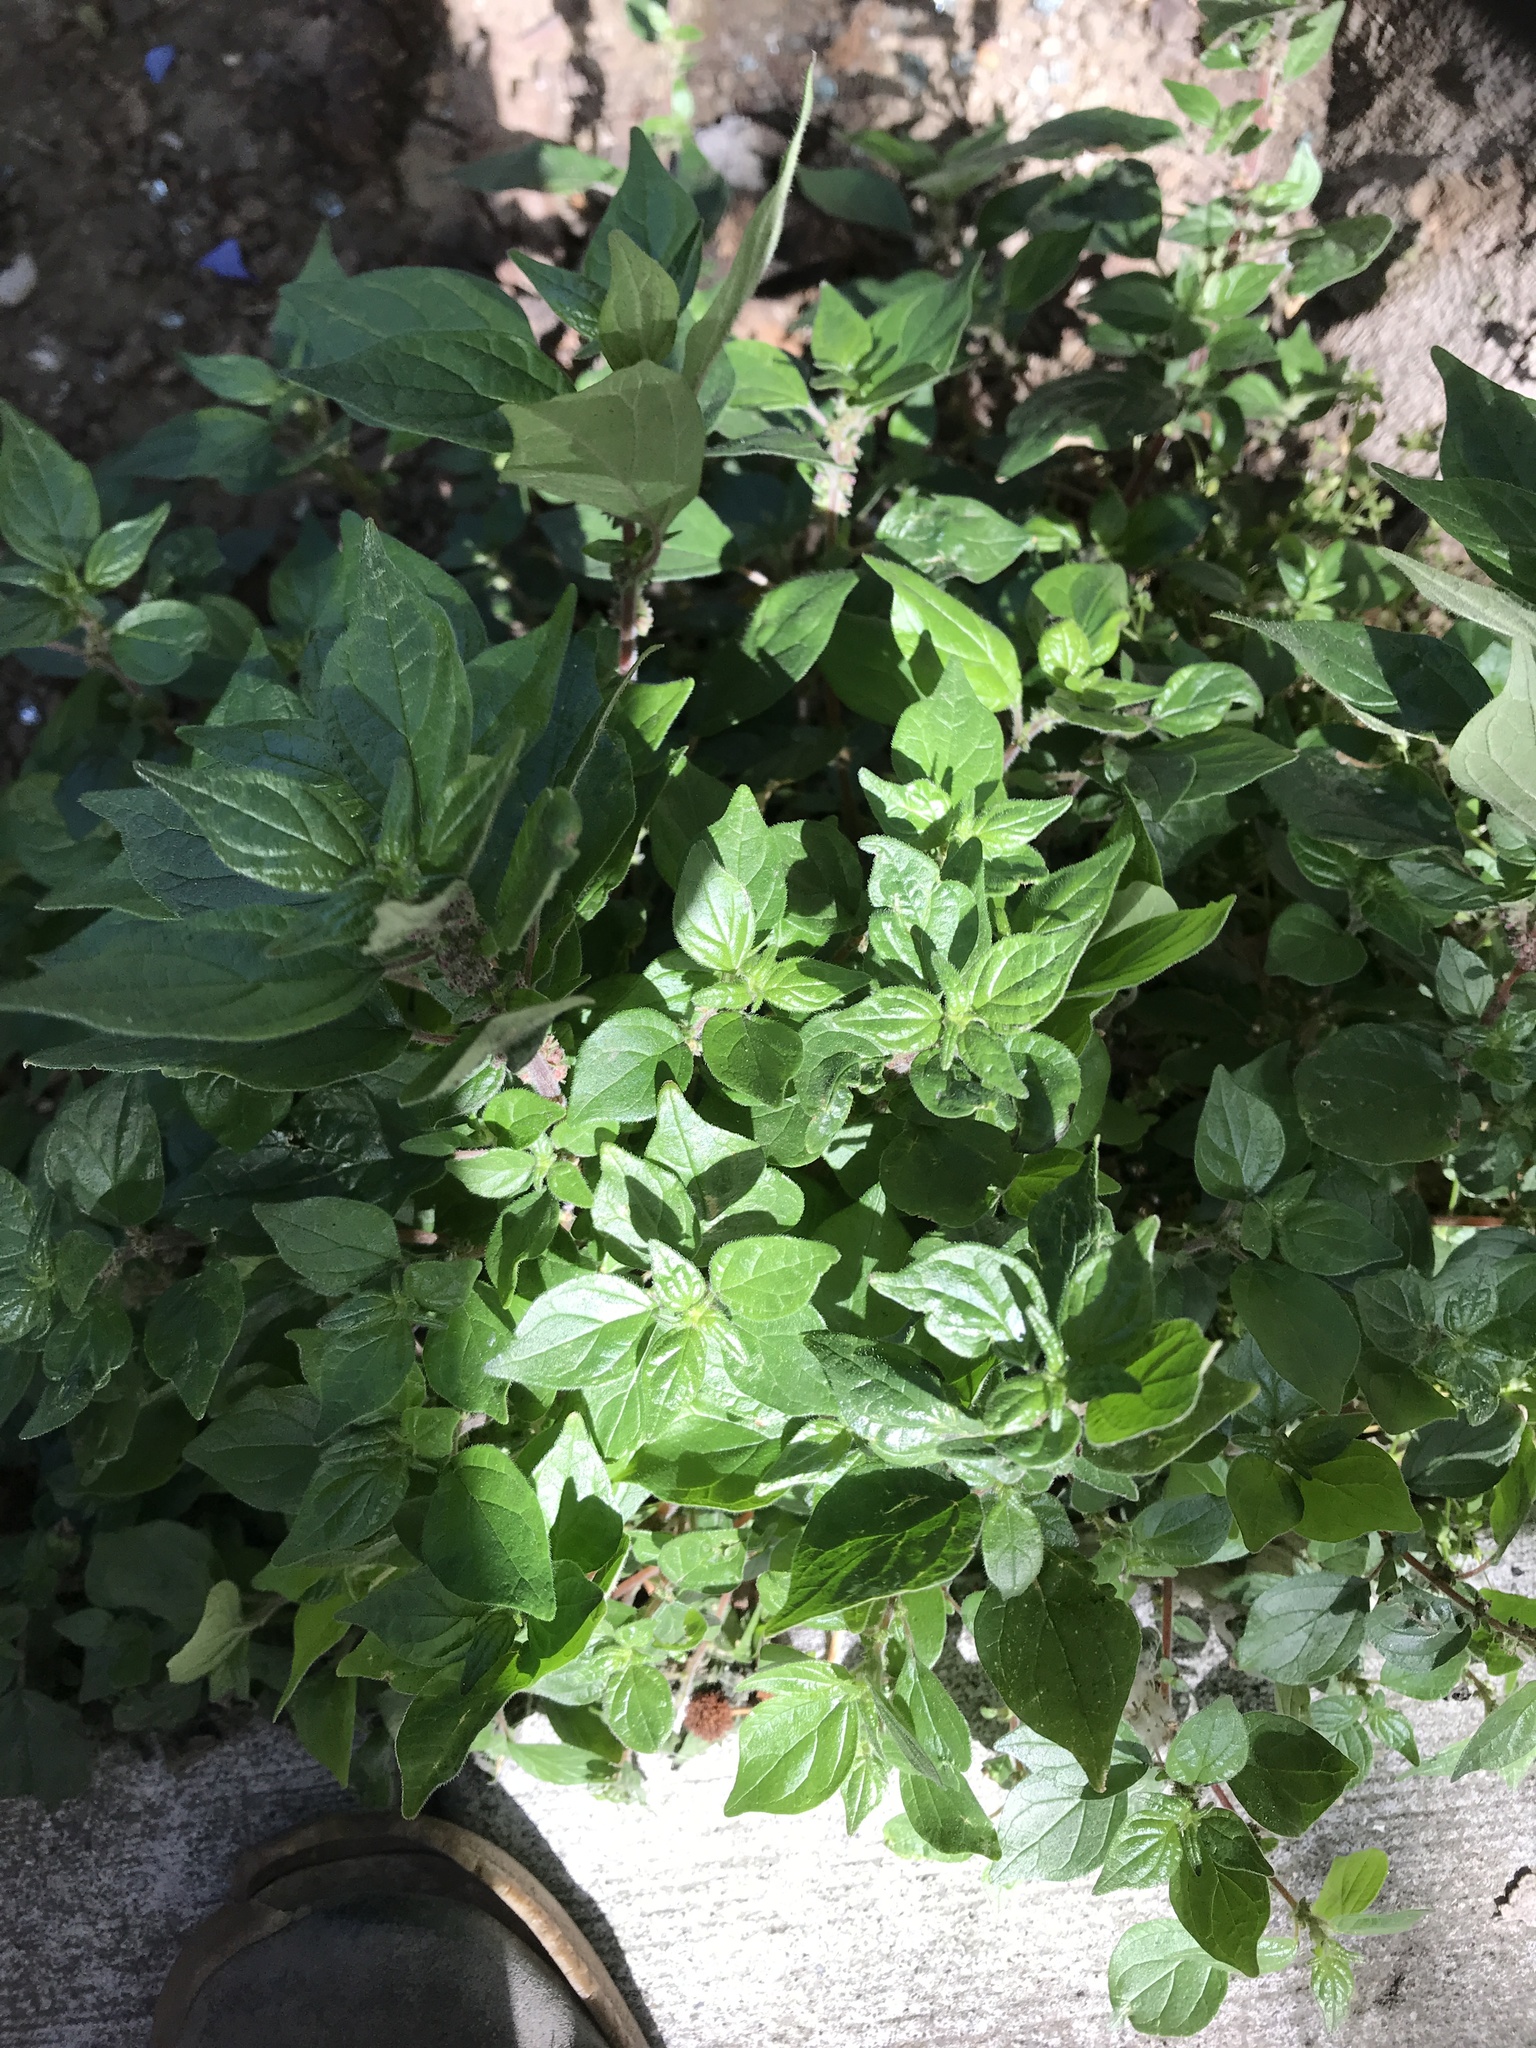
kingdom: Plantae
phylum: Tracheophyta
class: Magnoliopsida
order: Rosales
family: Urticaceae
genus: Parietaria
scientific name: Parietaria judaica
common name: Pellitory-of-the-wall
